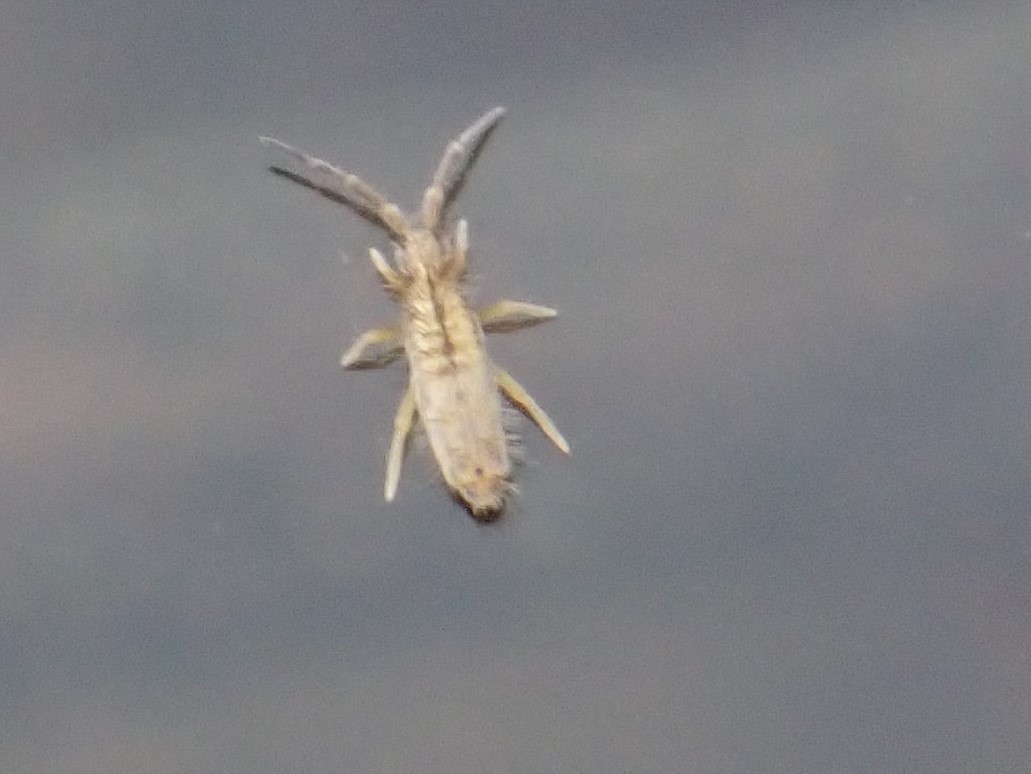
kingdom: Animalia
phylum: Arthropoda
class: Collembola
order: Entomobryomorpha
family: Entomobryidae
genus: Homidia
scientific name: Homidia socia
